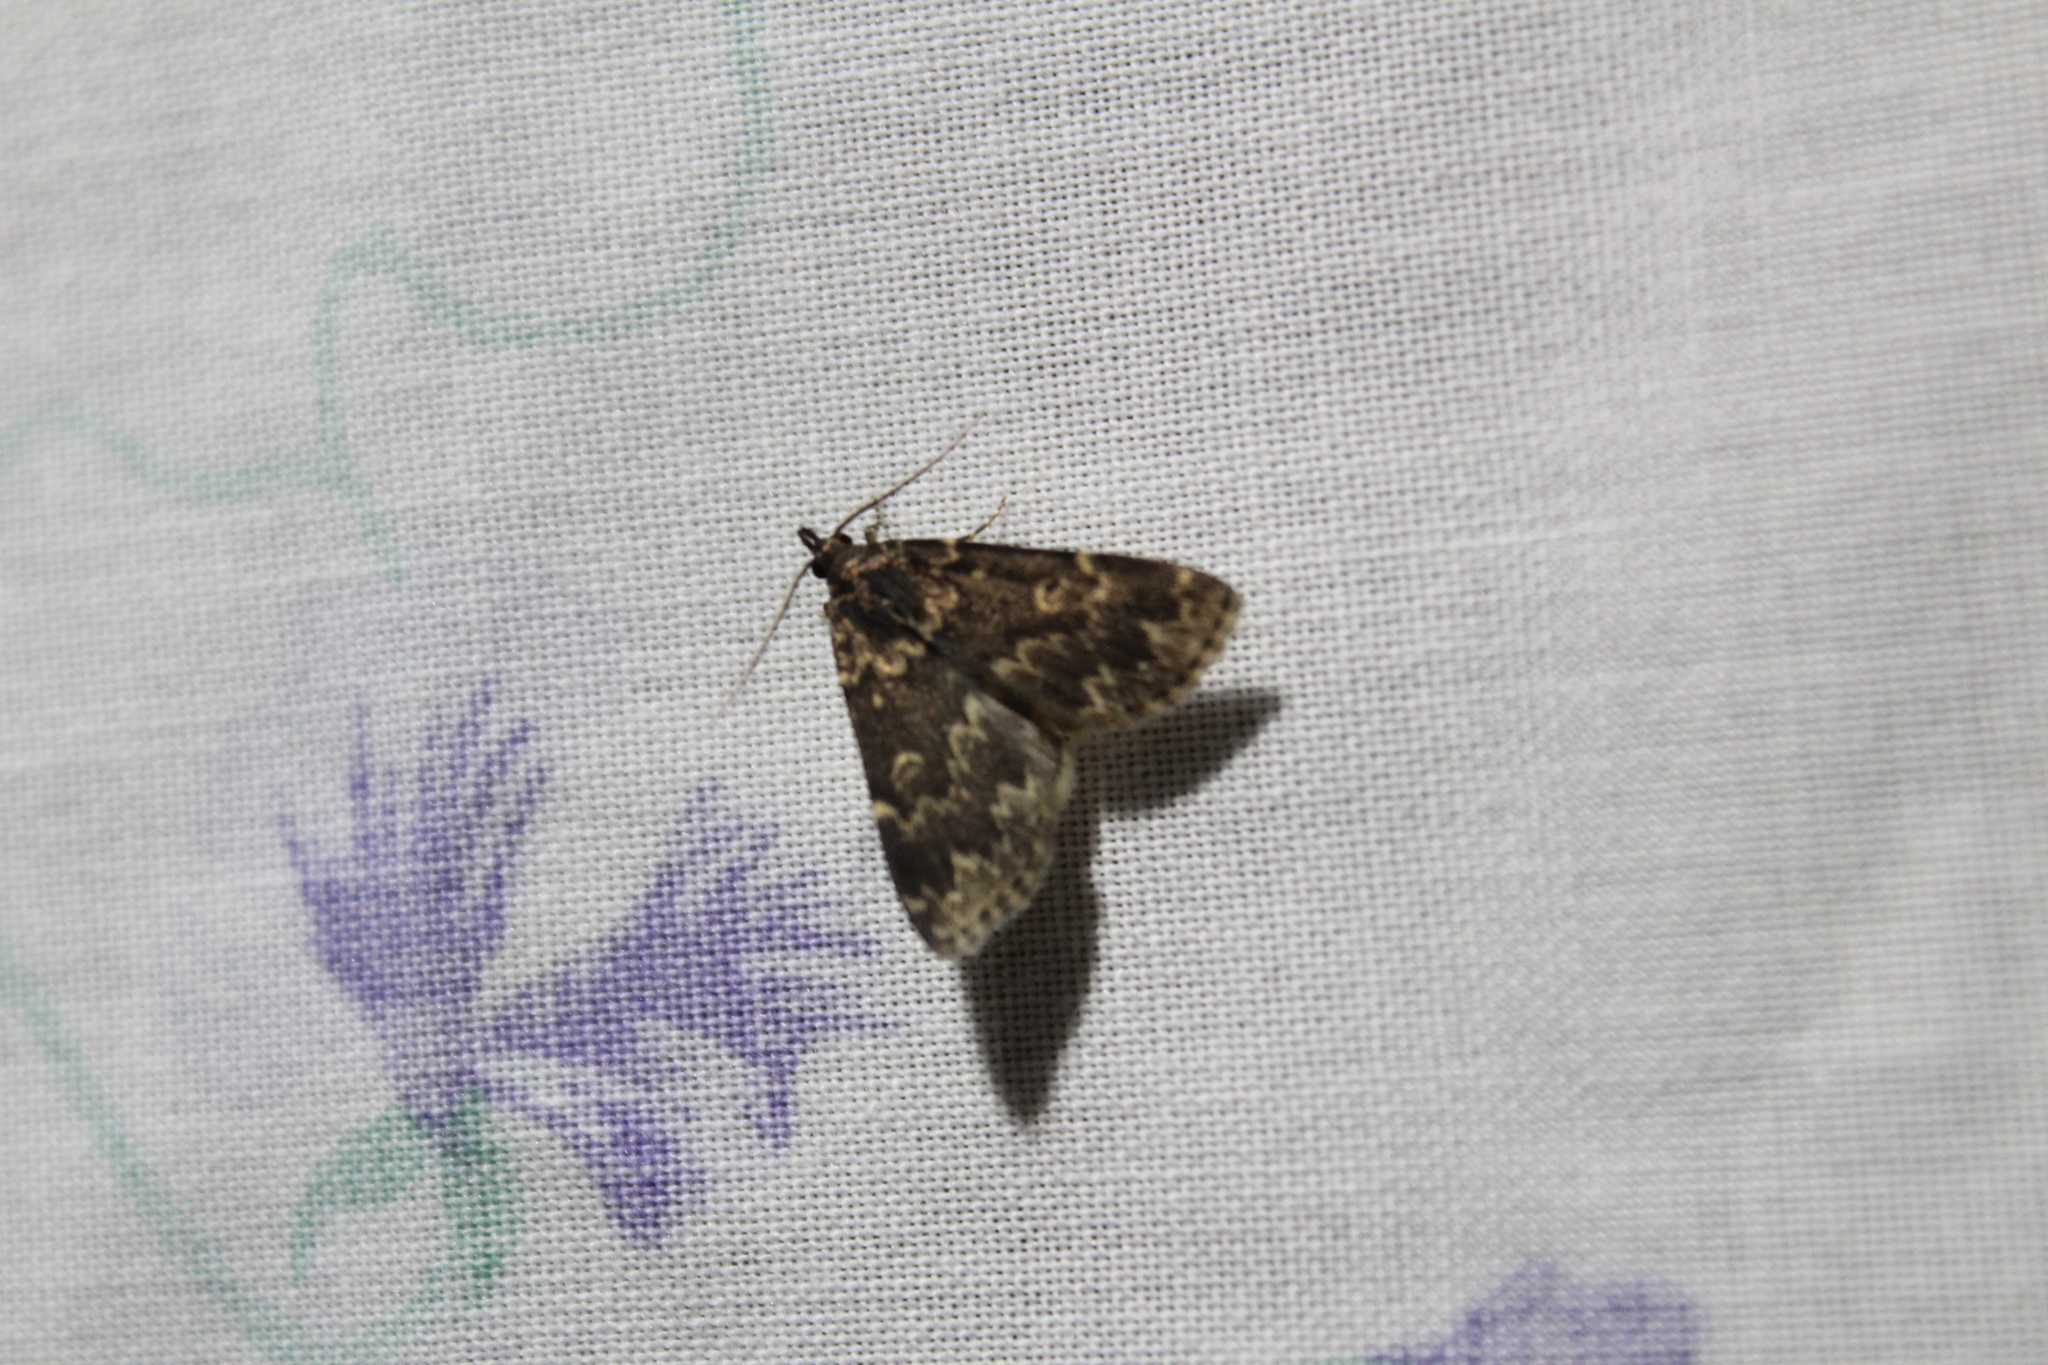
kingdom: Animalia
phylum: Arthropoda
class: Insecta
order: Lepidoptera
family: Erebidae
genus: Idia
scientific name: Idia lubricalis
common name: Twin-striped tabby
